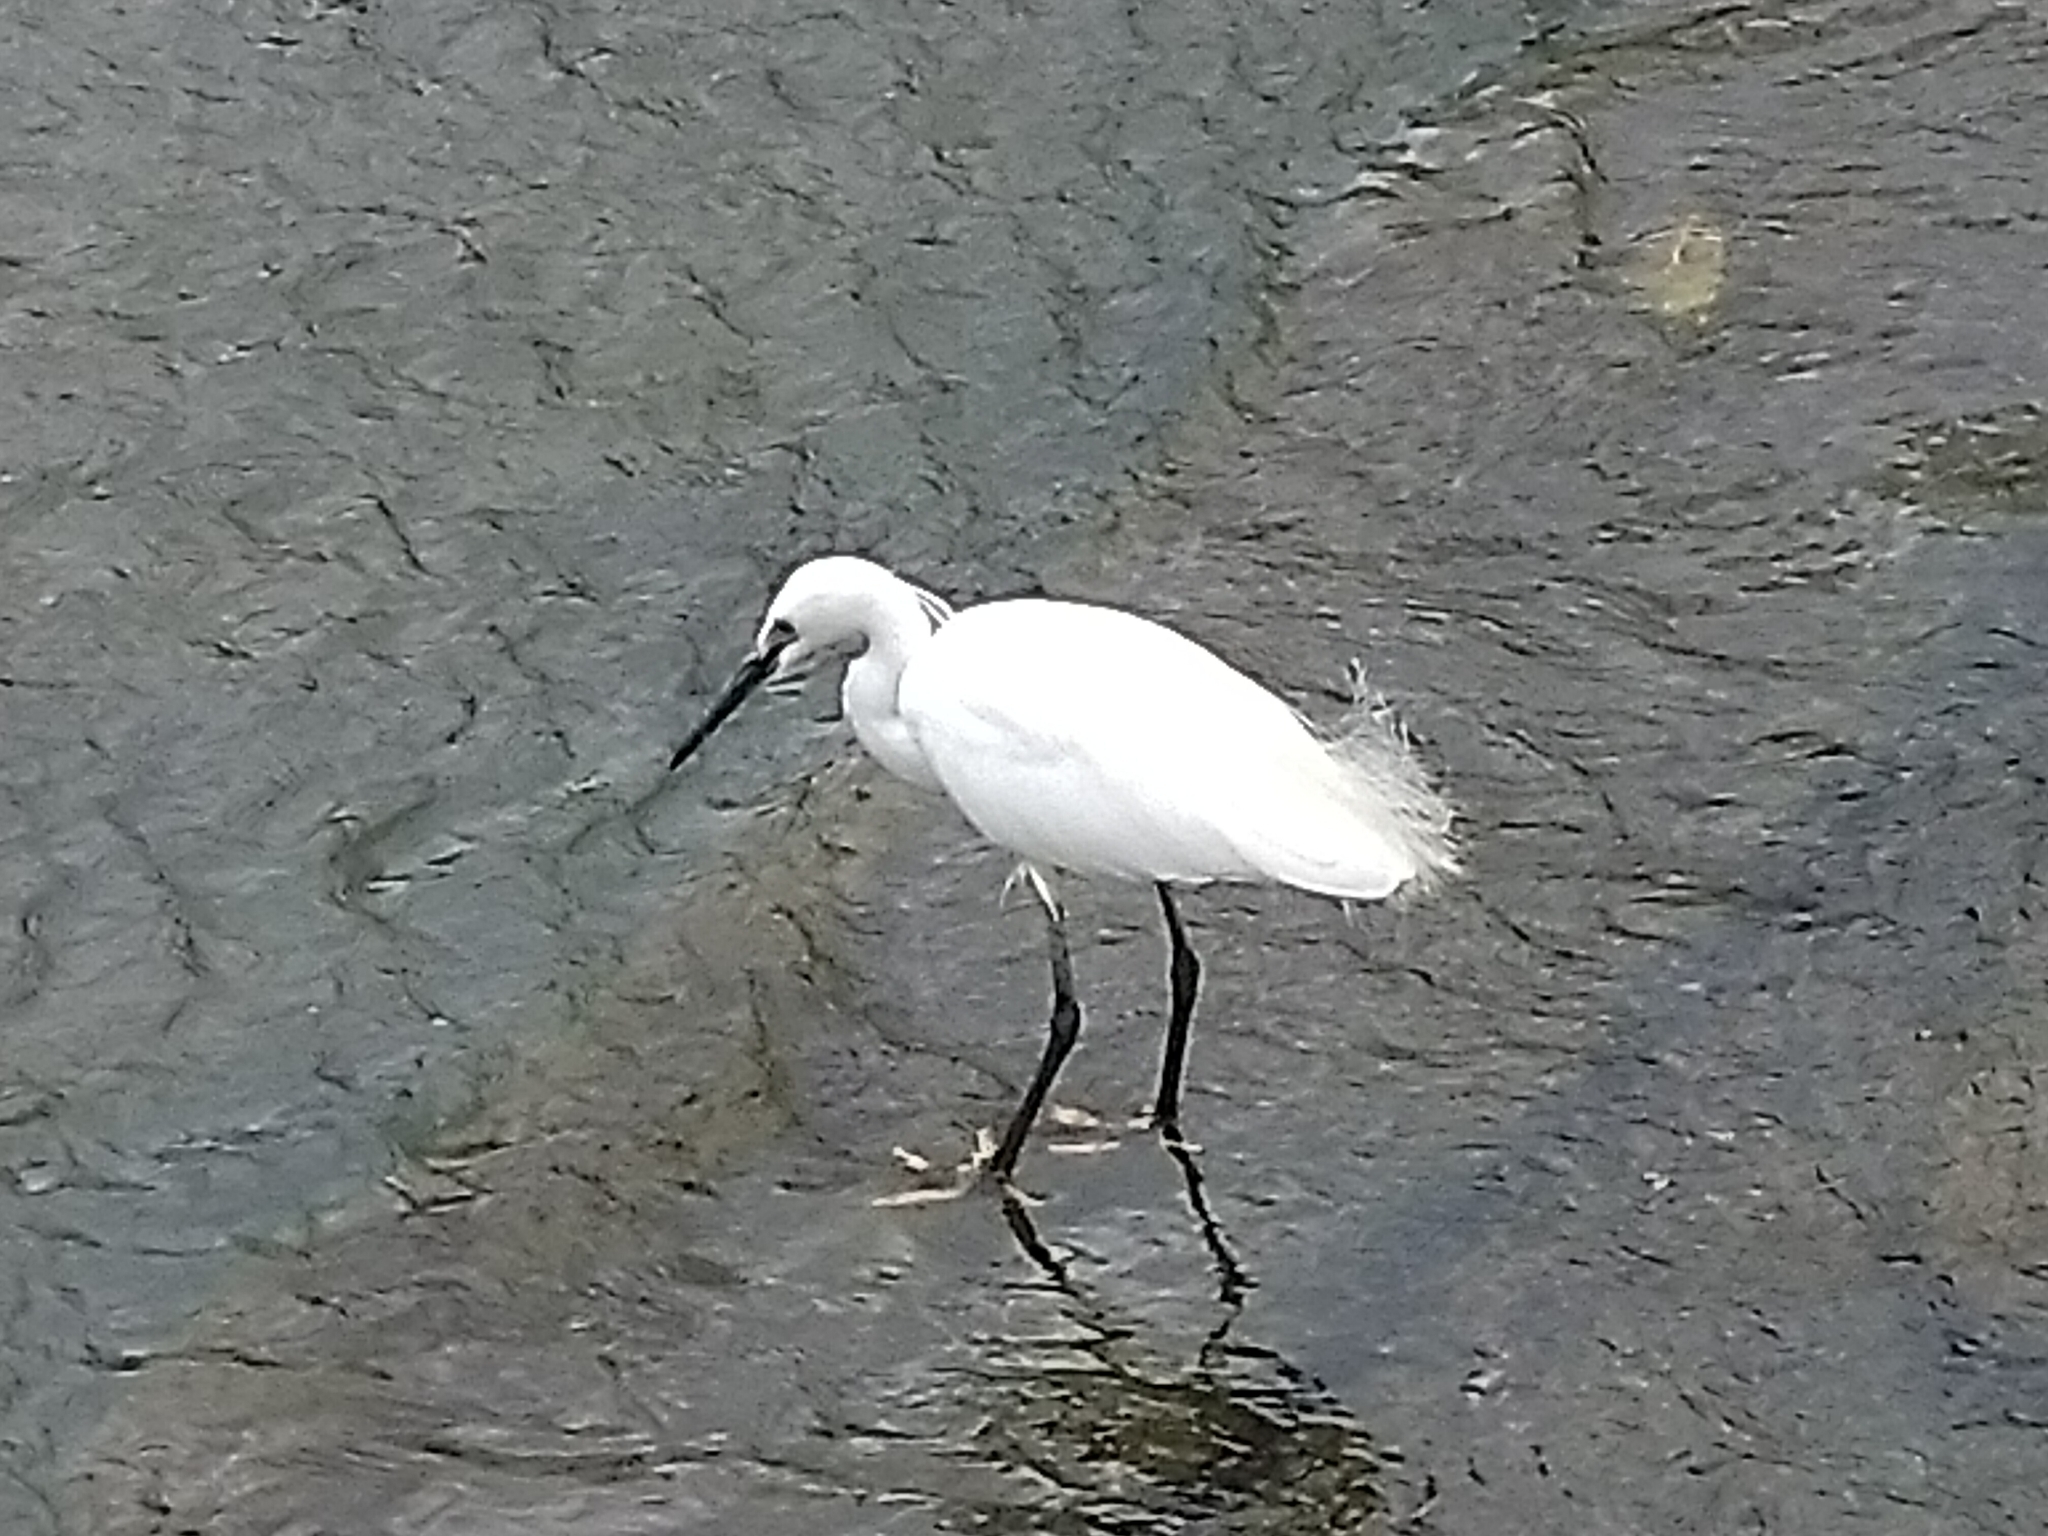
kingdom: Animalia
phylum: Chordata
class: Aves
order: Pelecaniformes
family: Ardeidae
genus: Egretta
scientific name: Egretta garzetta
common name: Little egret
